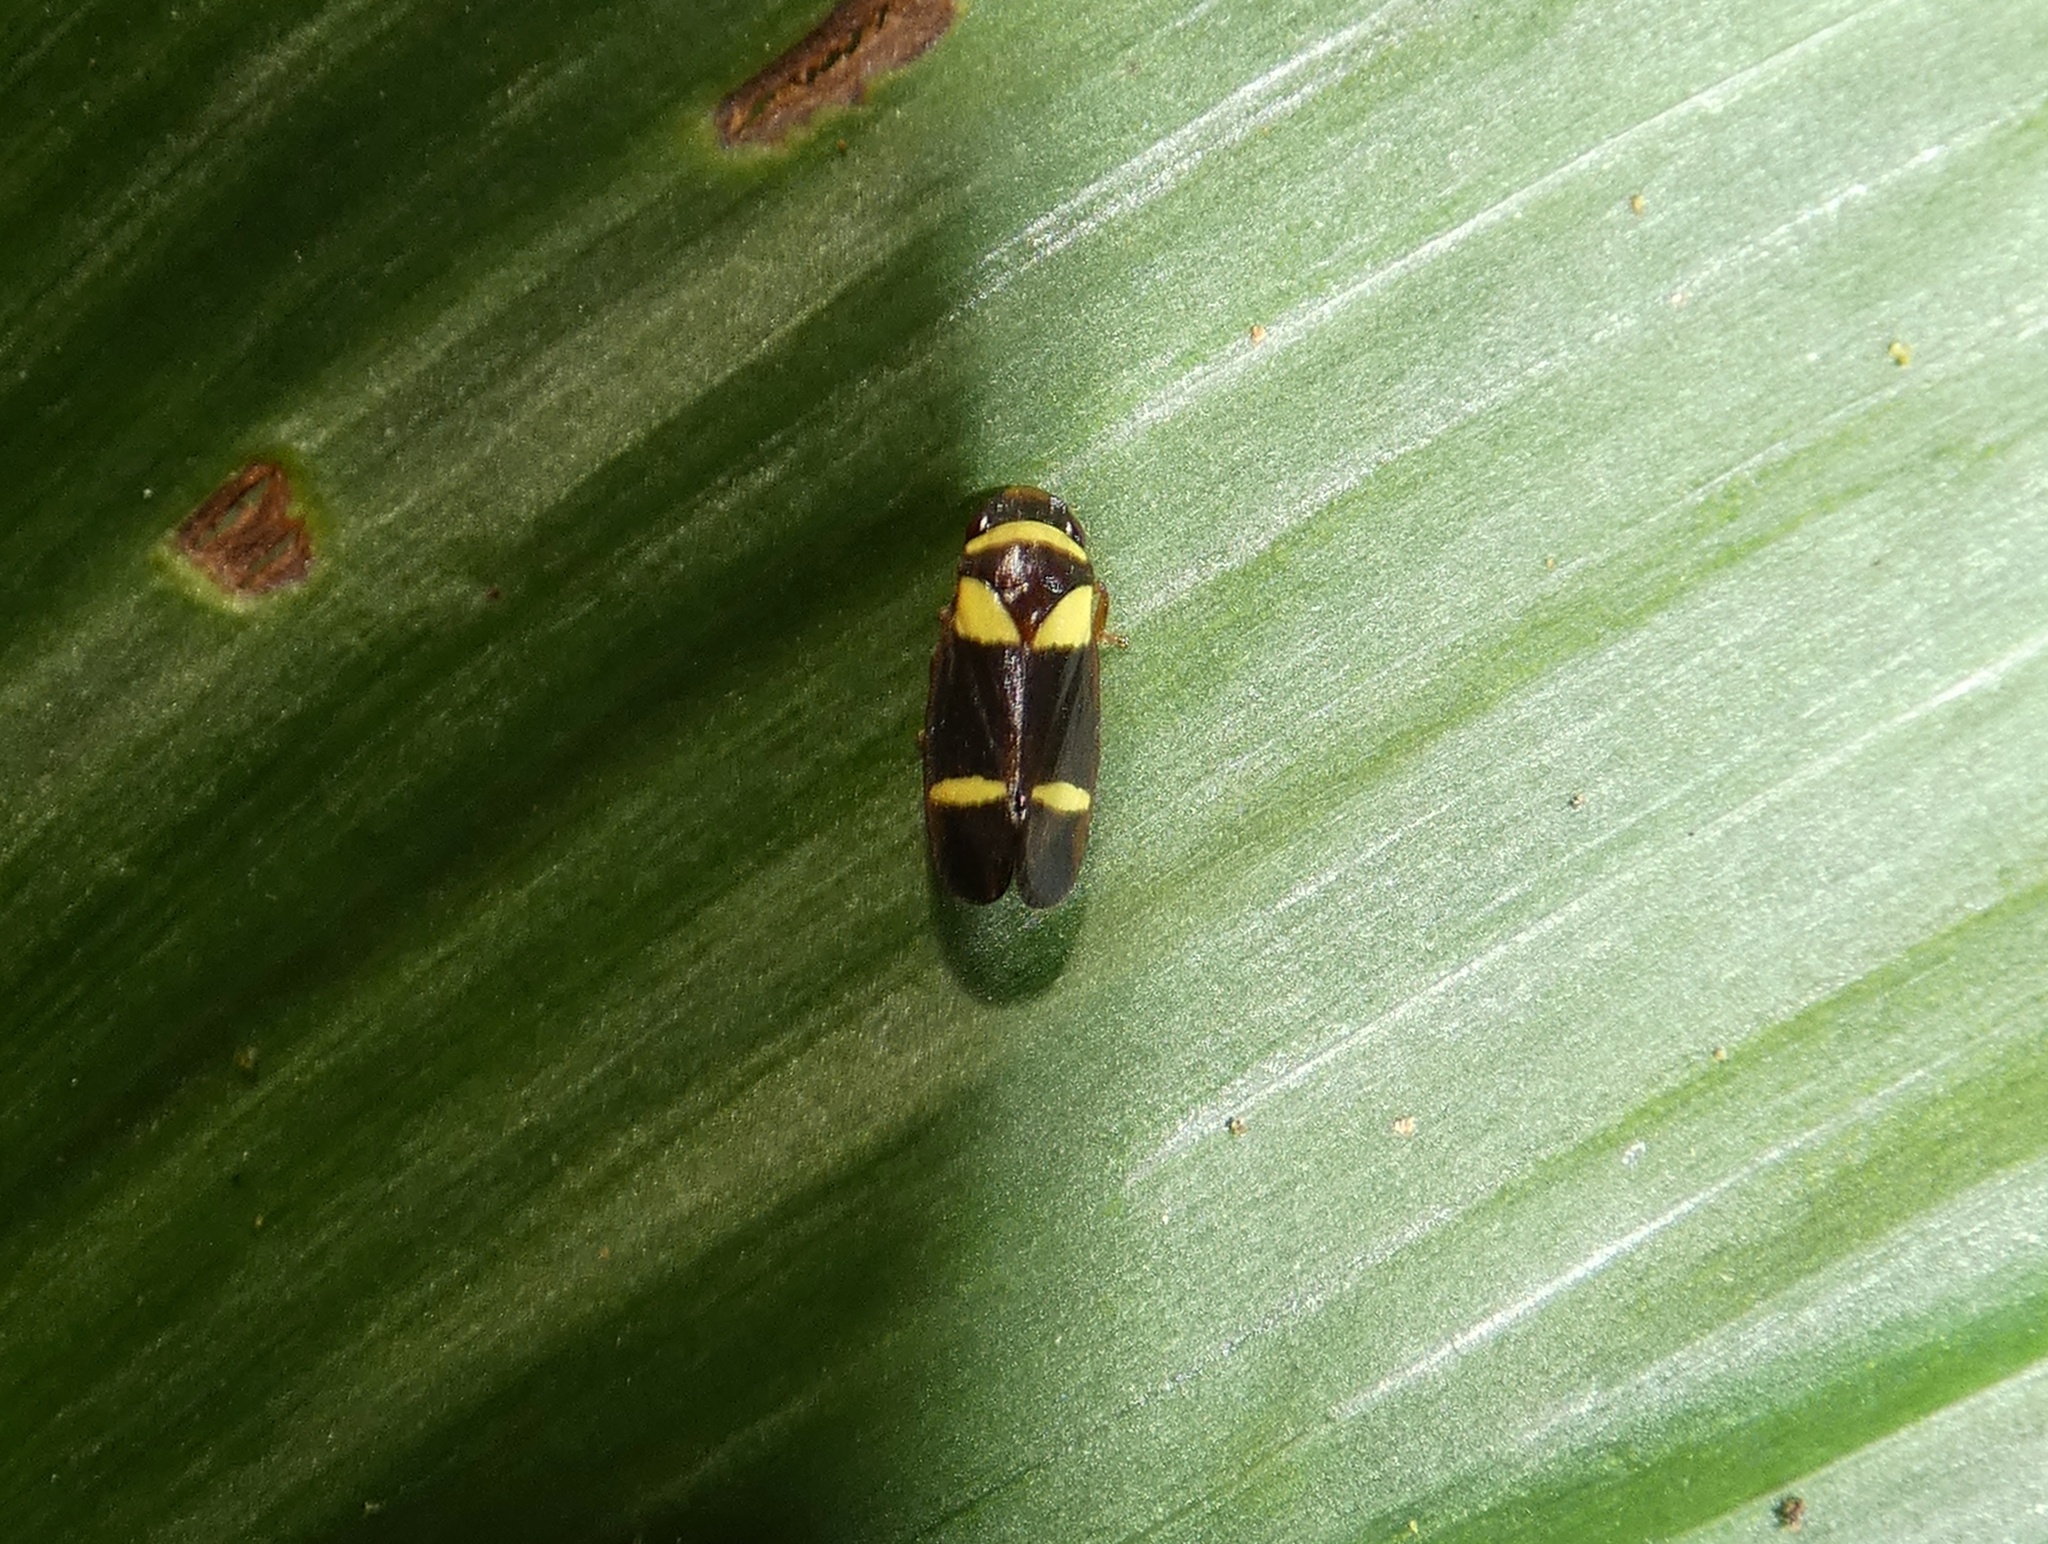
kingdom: Animalia
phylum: Arthropoda
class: Insecta
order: Hemiptera
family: Cercopidae
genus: Zuata
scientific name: Zuata luteofascia
